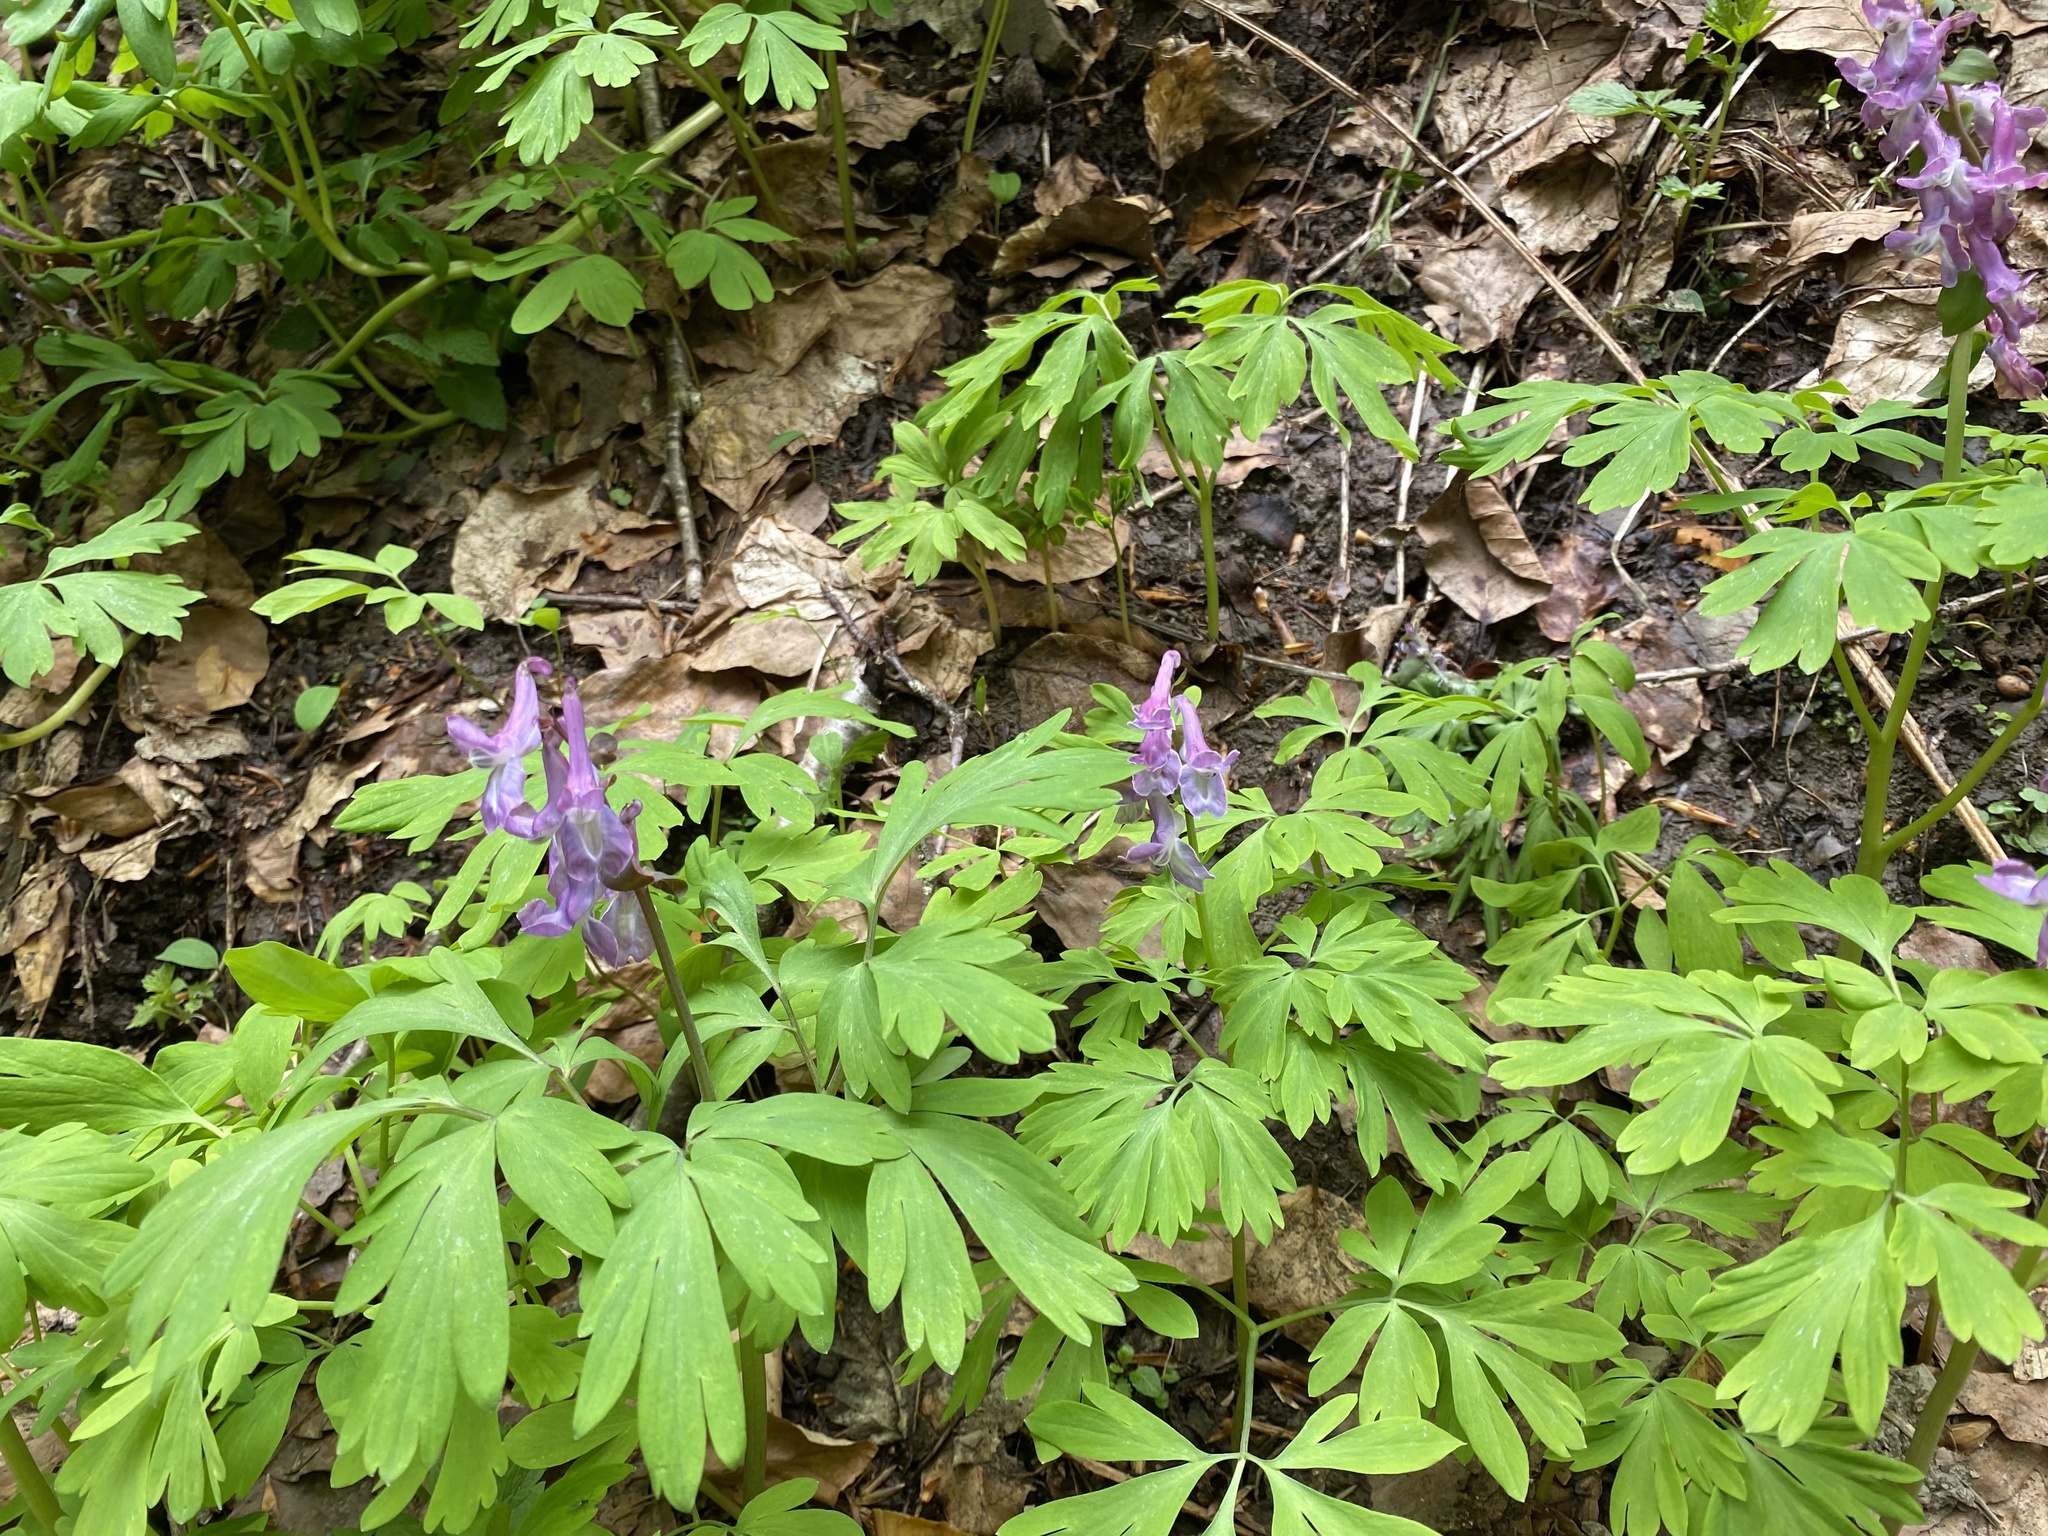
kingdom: Plantae
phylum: Tracheophyta
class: Magnoliopsida
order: Ranunculales
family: Papaveraceae
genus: Corydalis
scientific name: Corydalis cava
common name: Hollowroot
